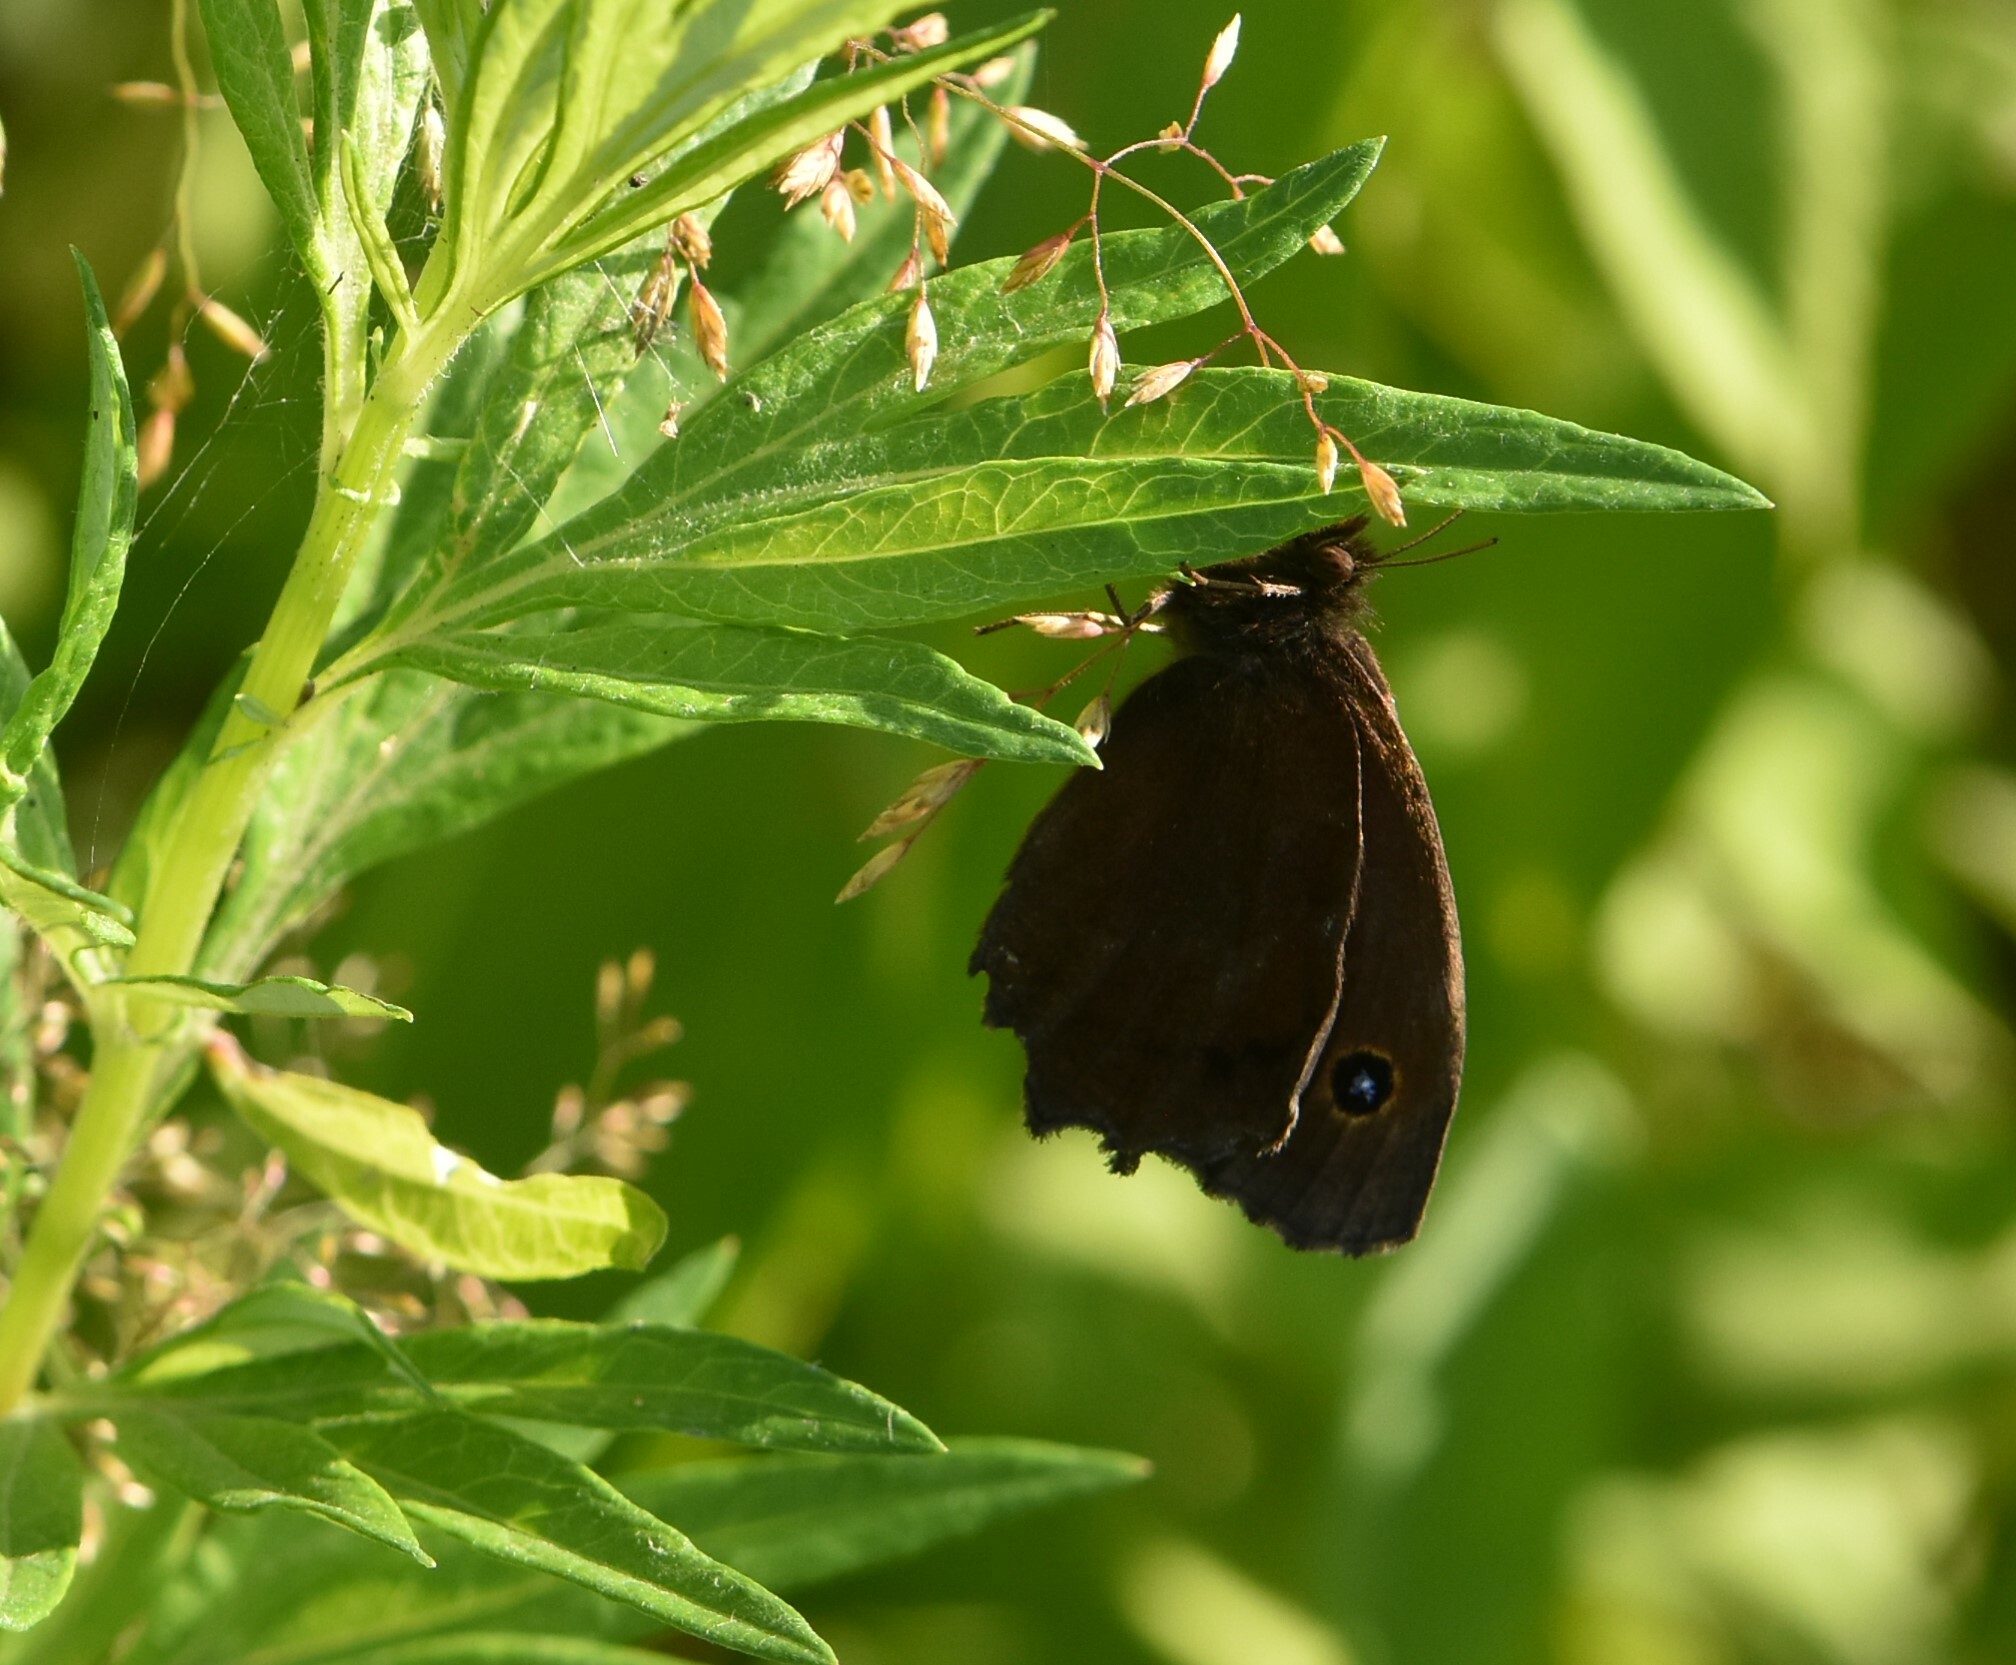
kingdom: Animalia
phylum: Arthropoda
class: Insecta
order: Lepidoptera
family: Nymphalidae
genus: Minois
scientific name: Minois dryas
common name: Dryad
